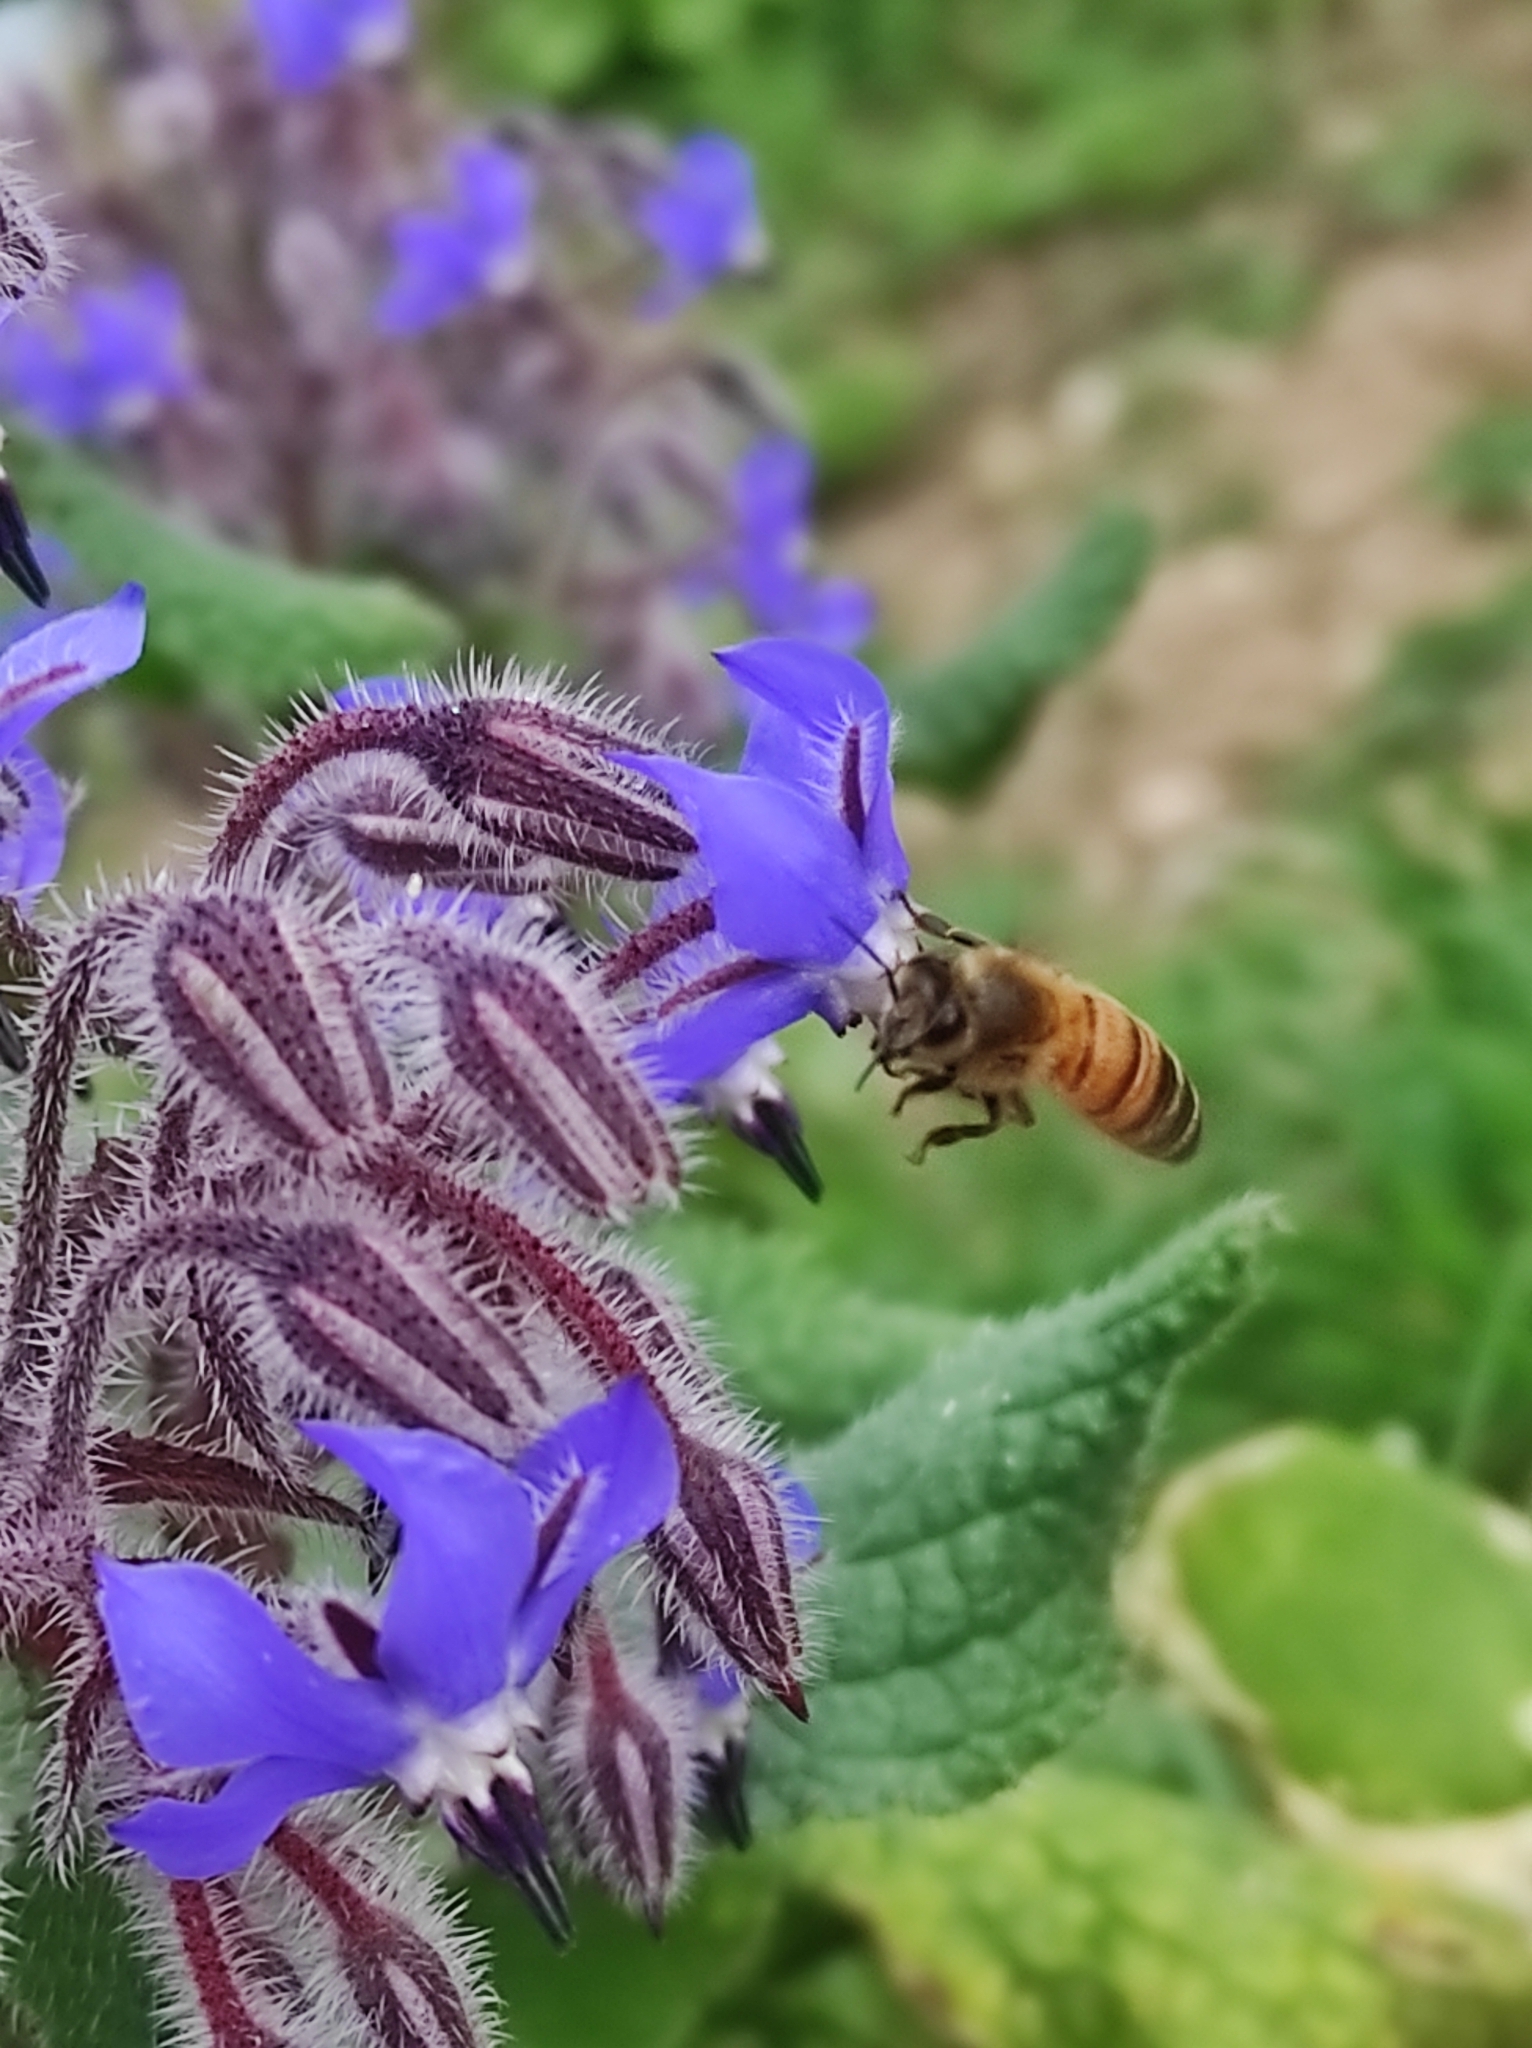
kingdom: Animalia
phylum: Arthropoda
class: Insecta
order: Hymenoptera
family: Apidae
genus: Apis
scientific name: Apis mellifera
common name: Honey bee
